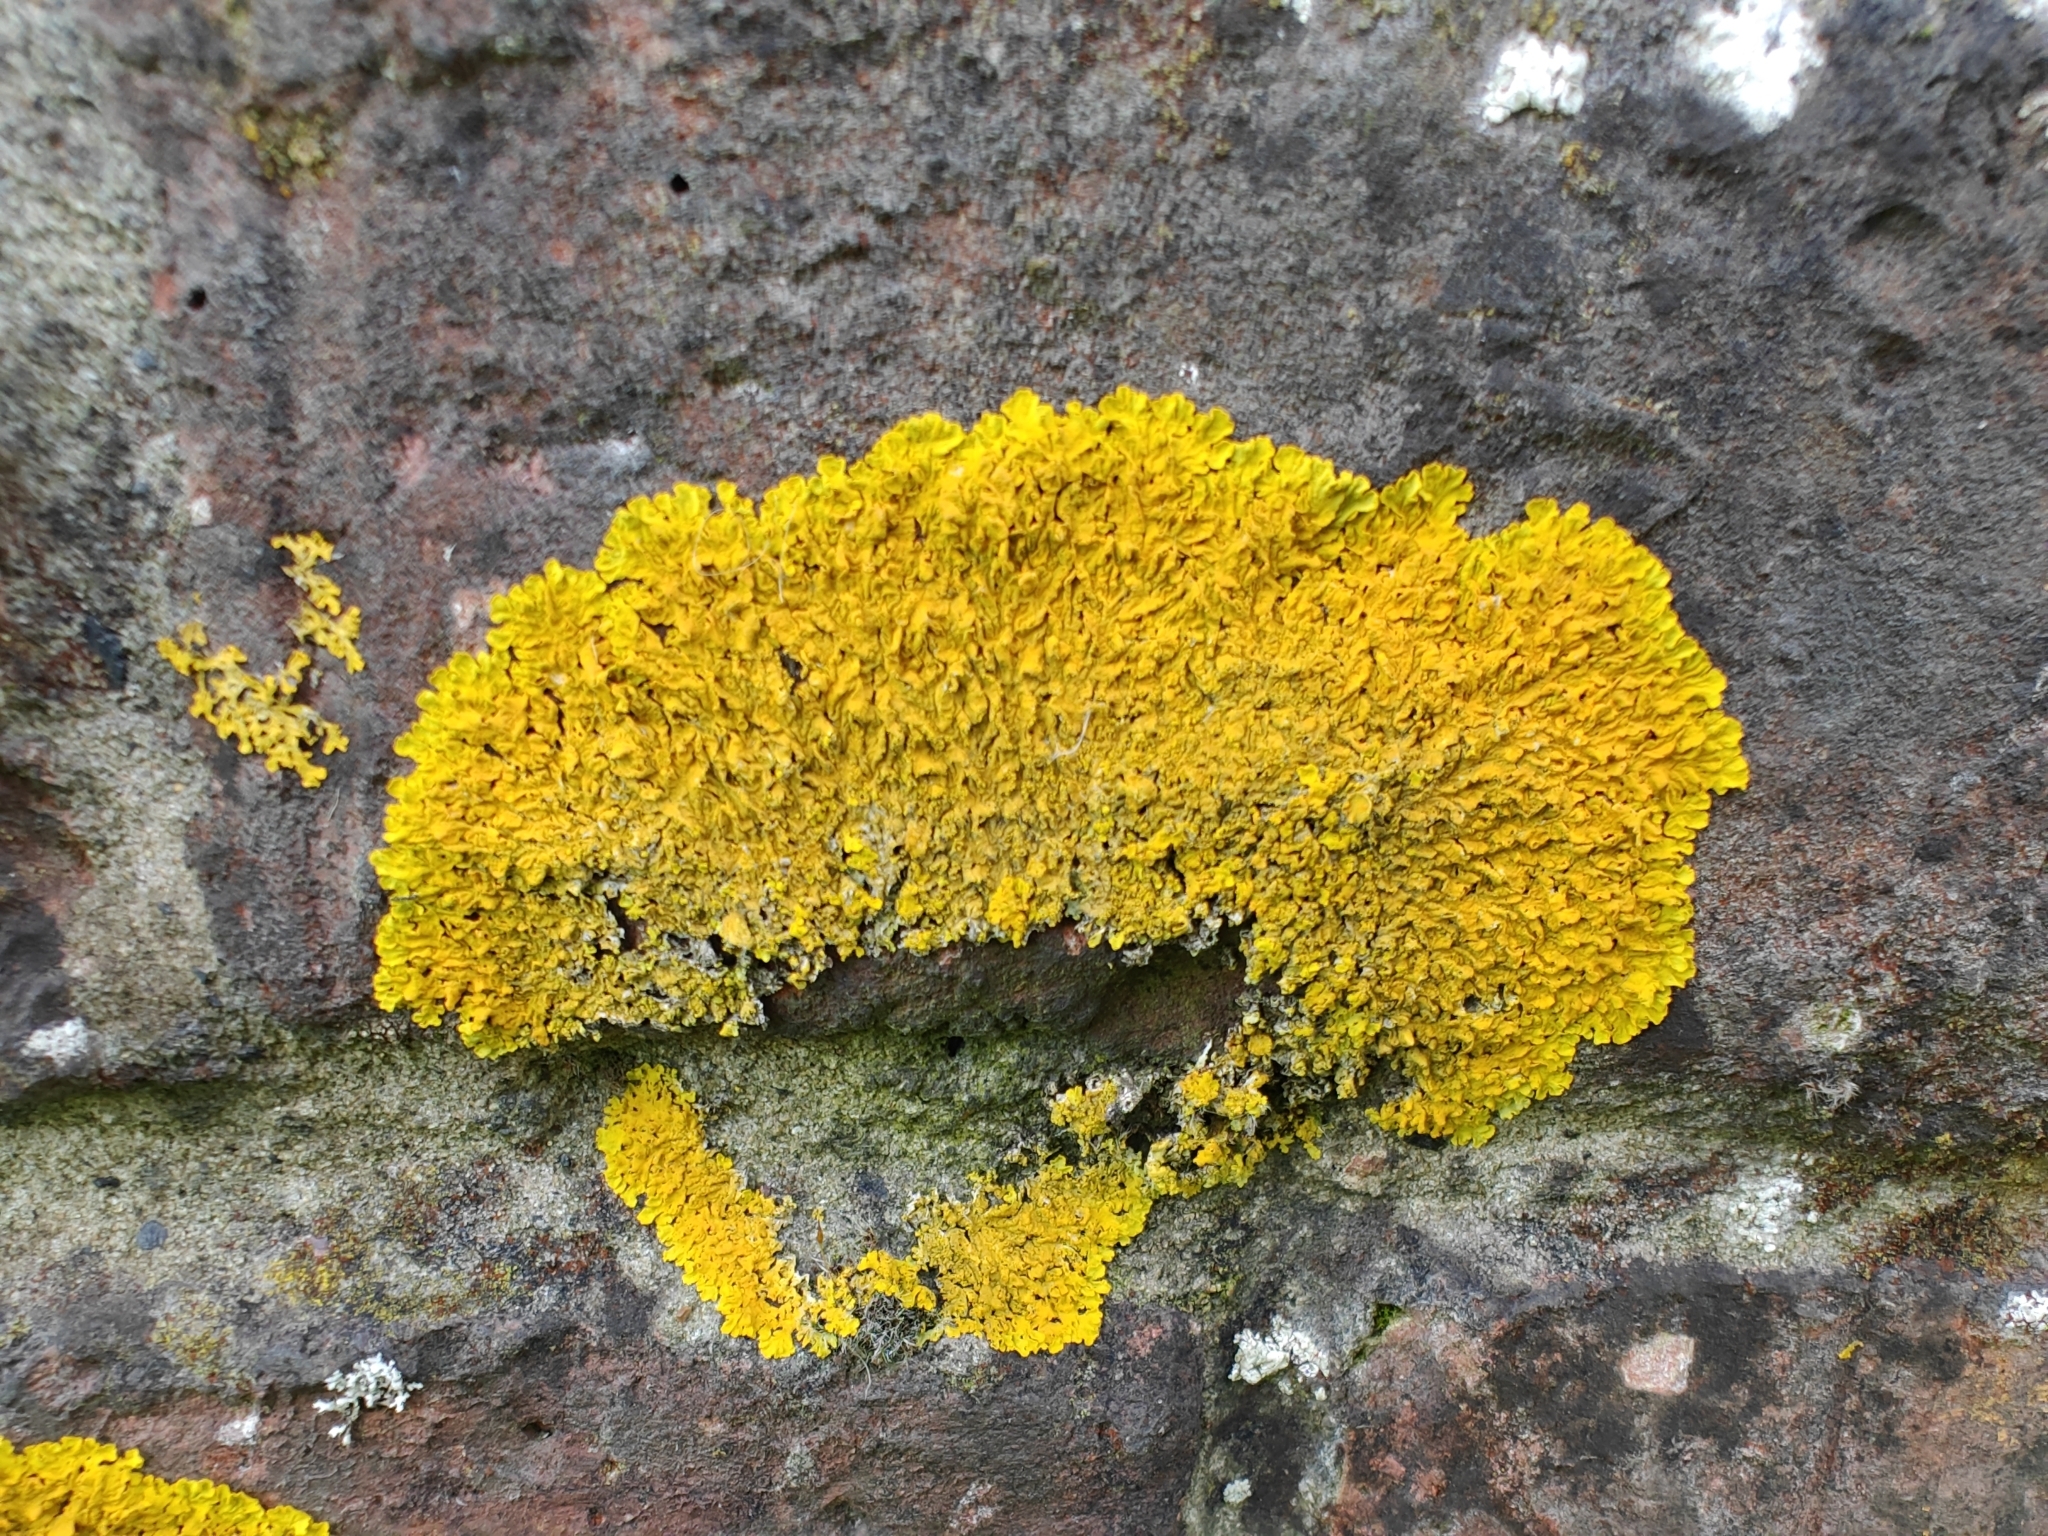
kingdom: Fungi
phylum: Ascomycota
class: Lecanoromycetes
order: Teloschistales
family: Teloschistaceae
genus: Xanthoria
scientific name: Xanthoria calcicola
